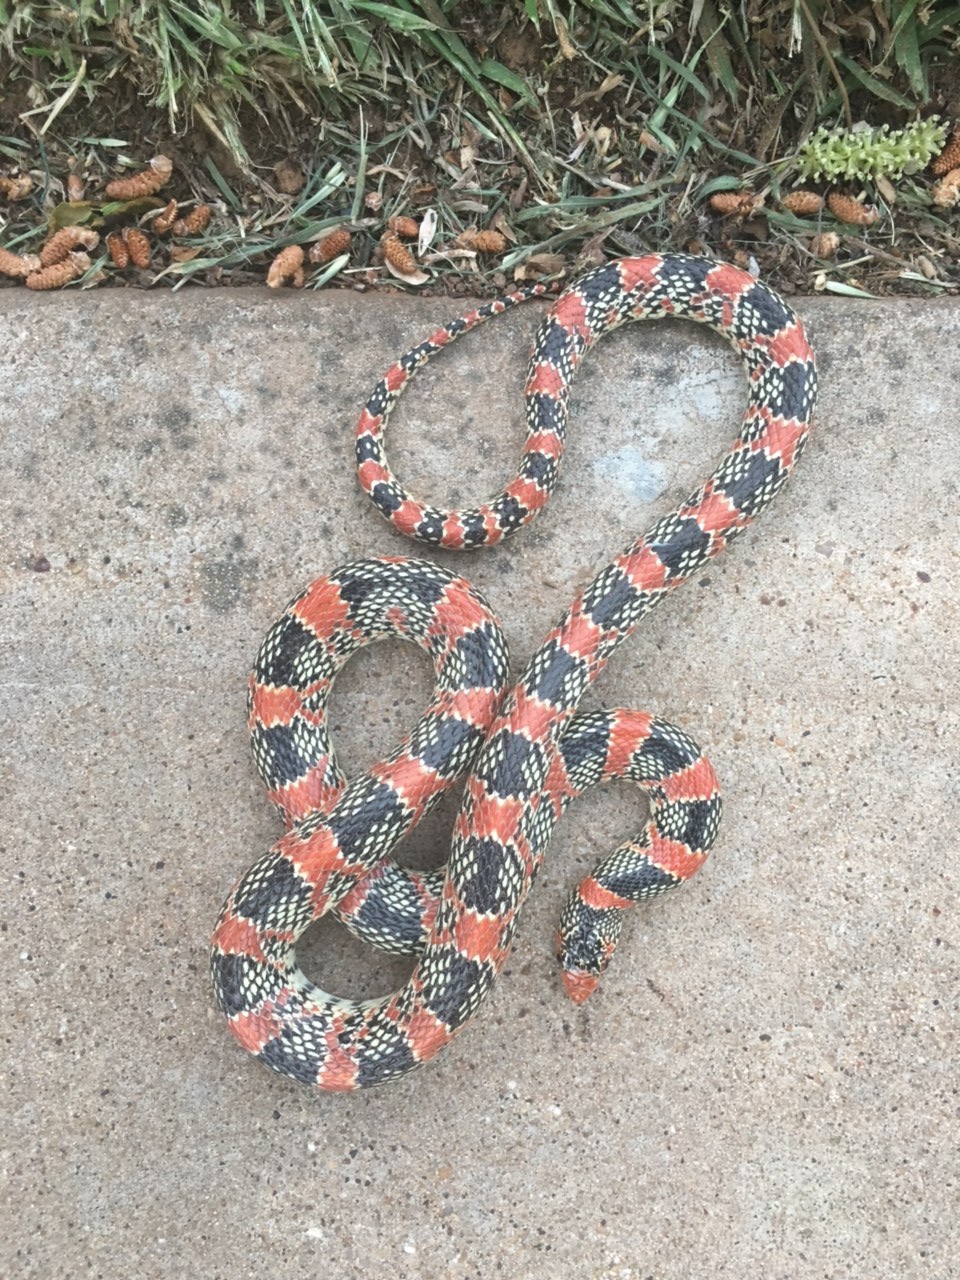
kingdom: Animalia
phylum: Chordata
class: Squamata
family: Colubridae
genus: Rhinocheilus
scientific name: Rhinocheilus lecontei
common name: Longnose snake
